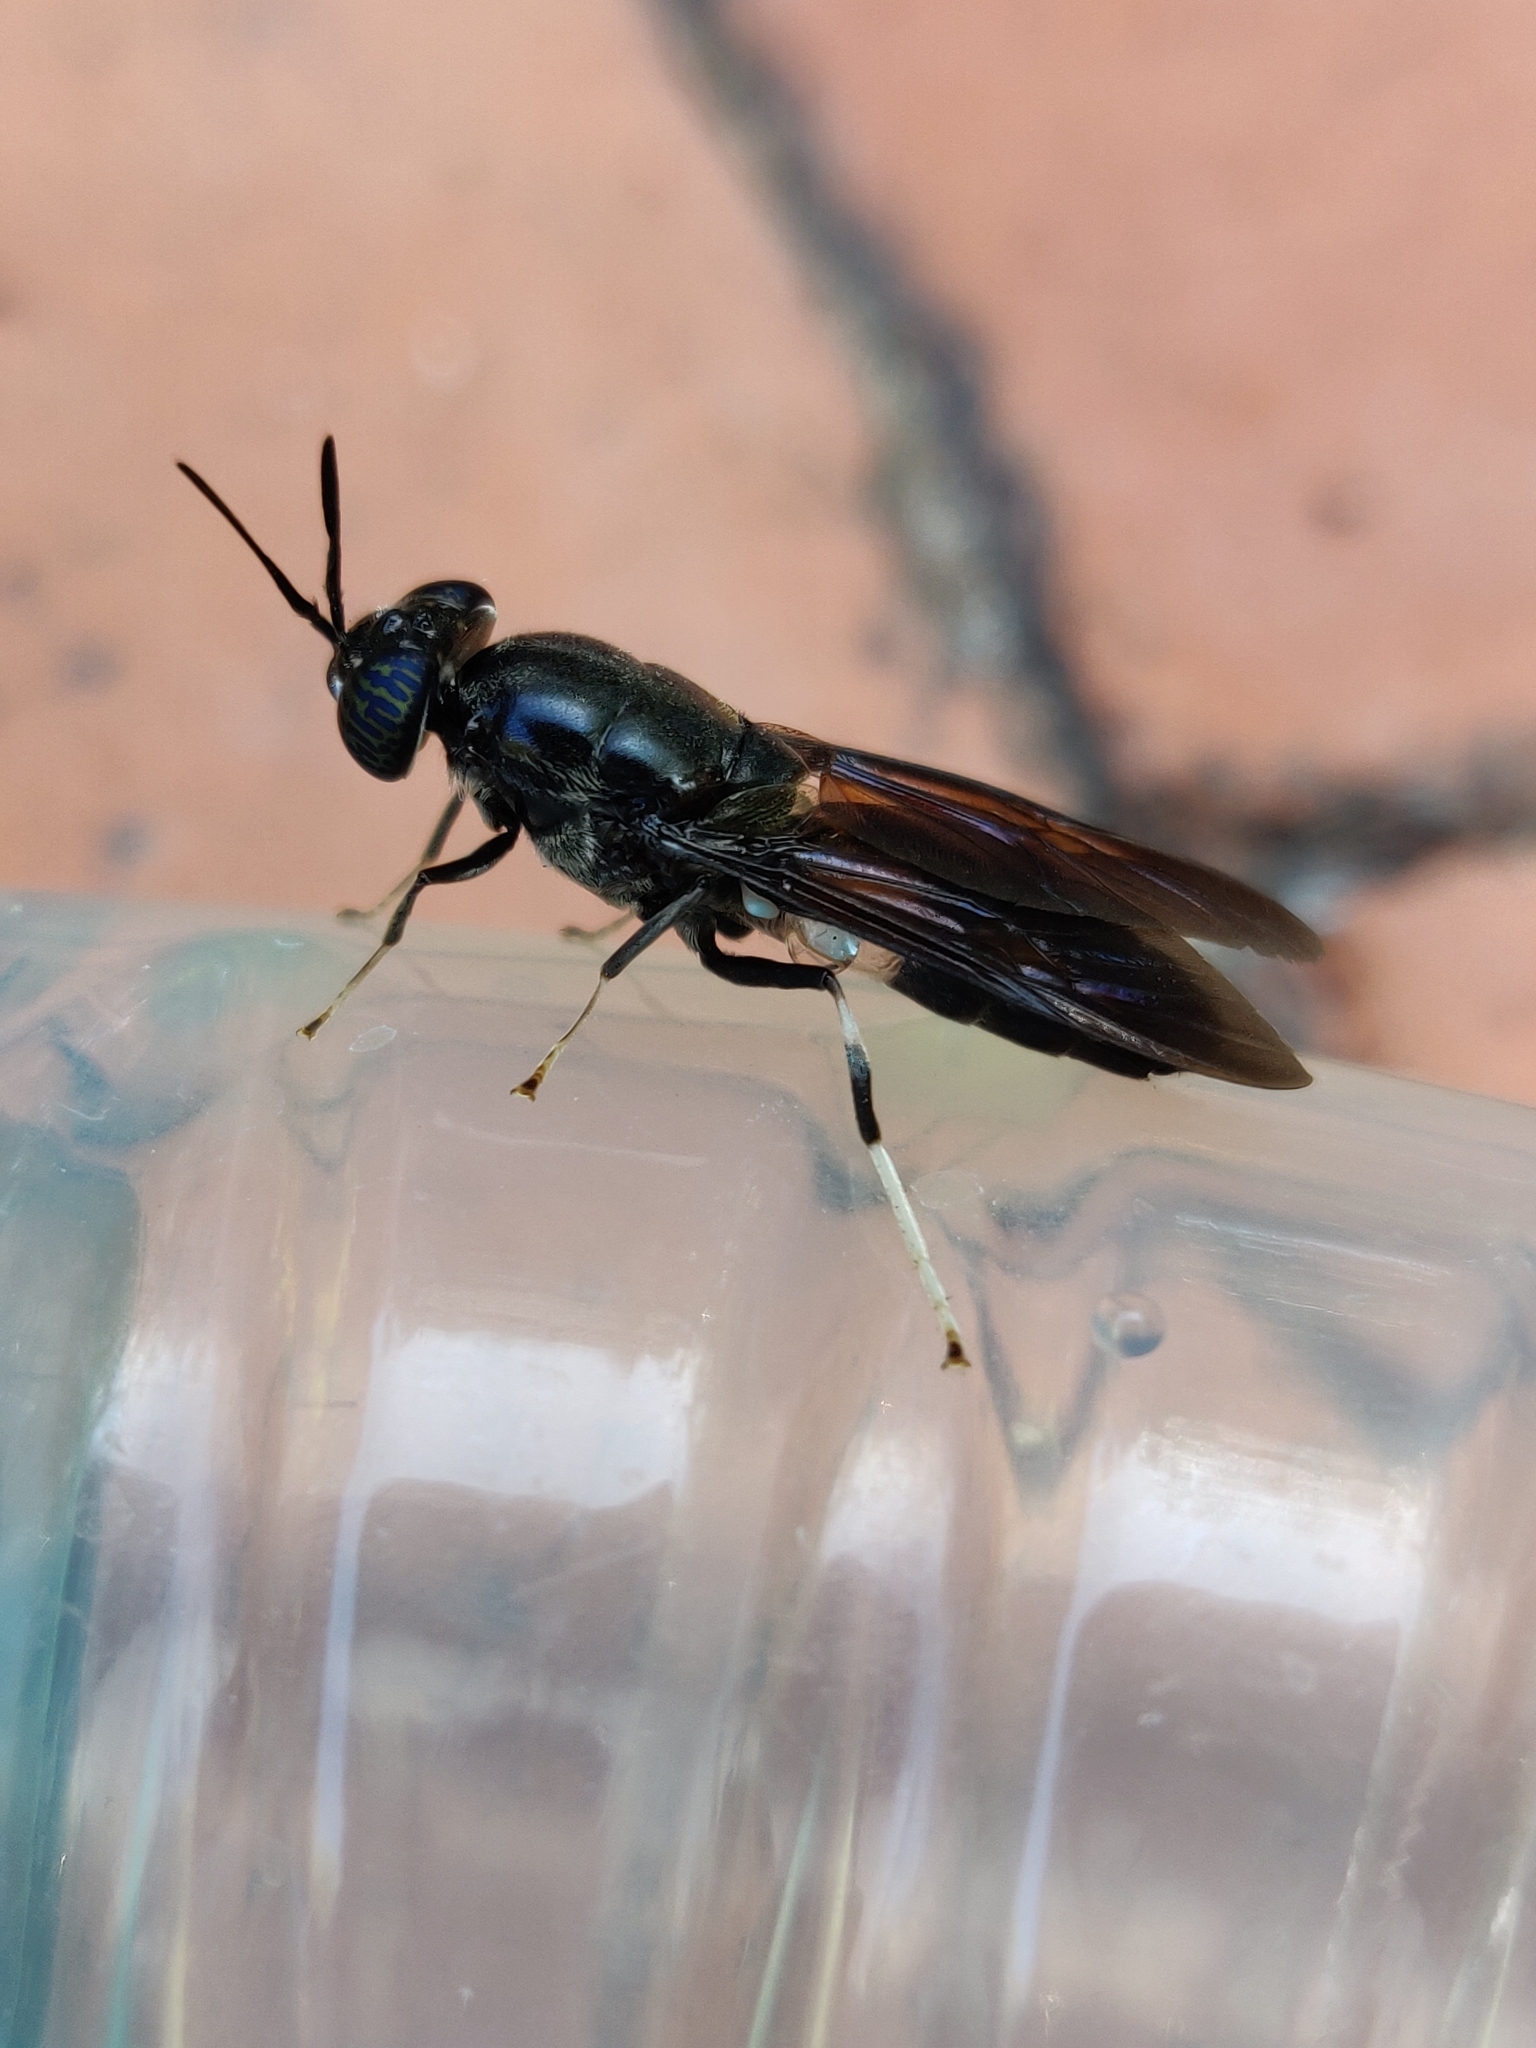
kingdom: Animalia
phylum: Arthropoda
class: Insecta
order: Diptera
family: Stratiomyidae
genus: Hermetia
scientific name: Hermetia illucens
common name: Black soldier fly
